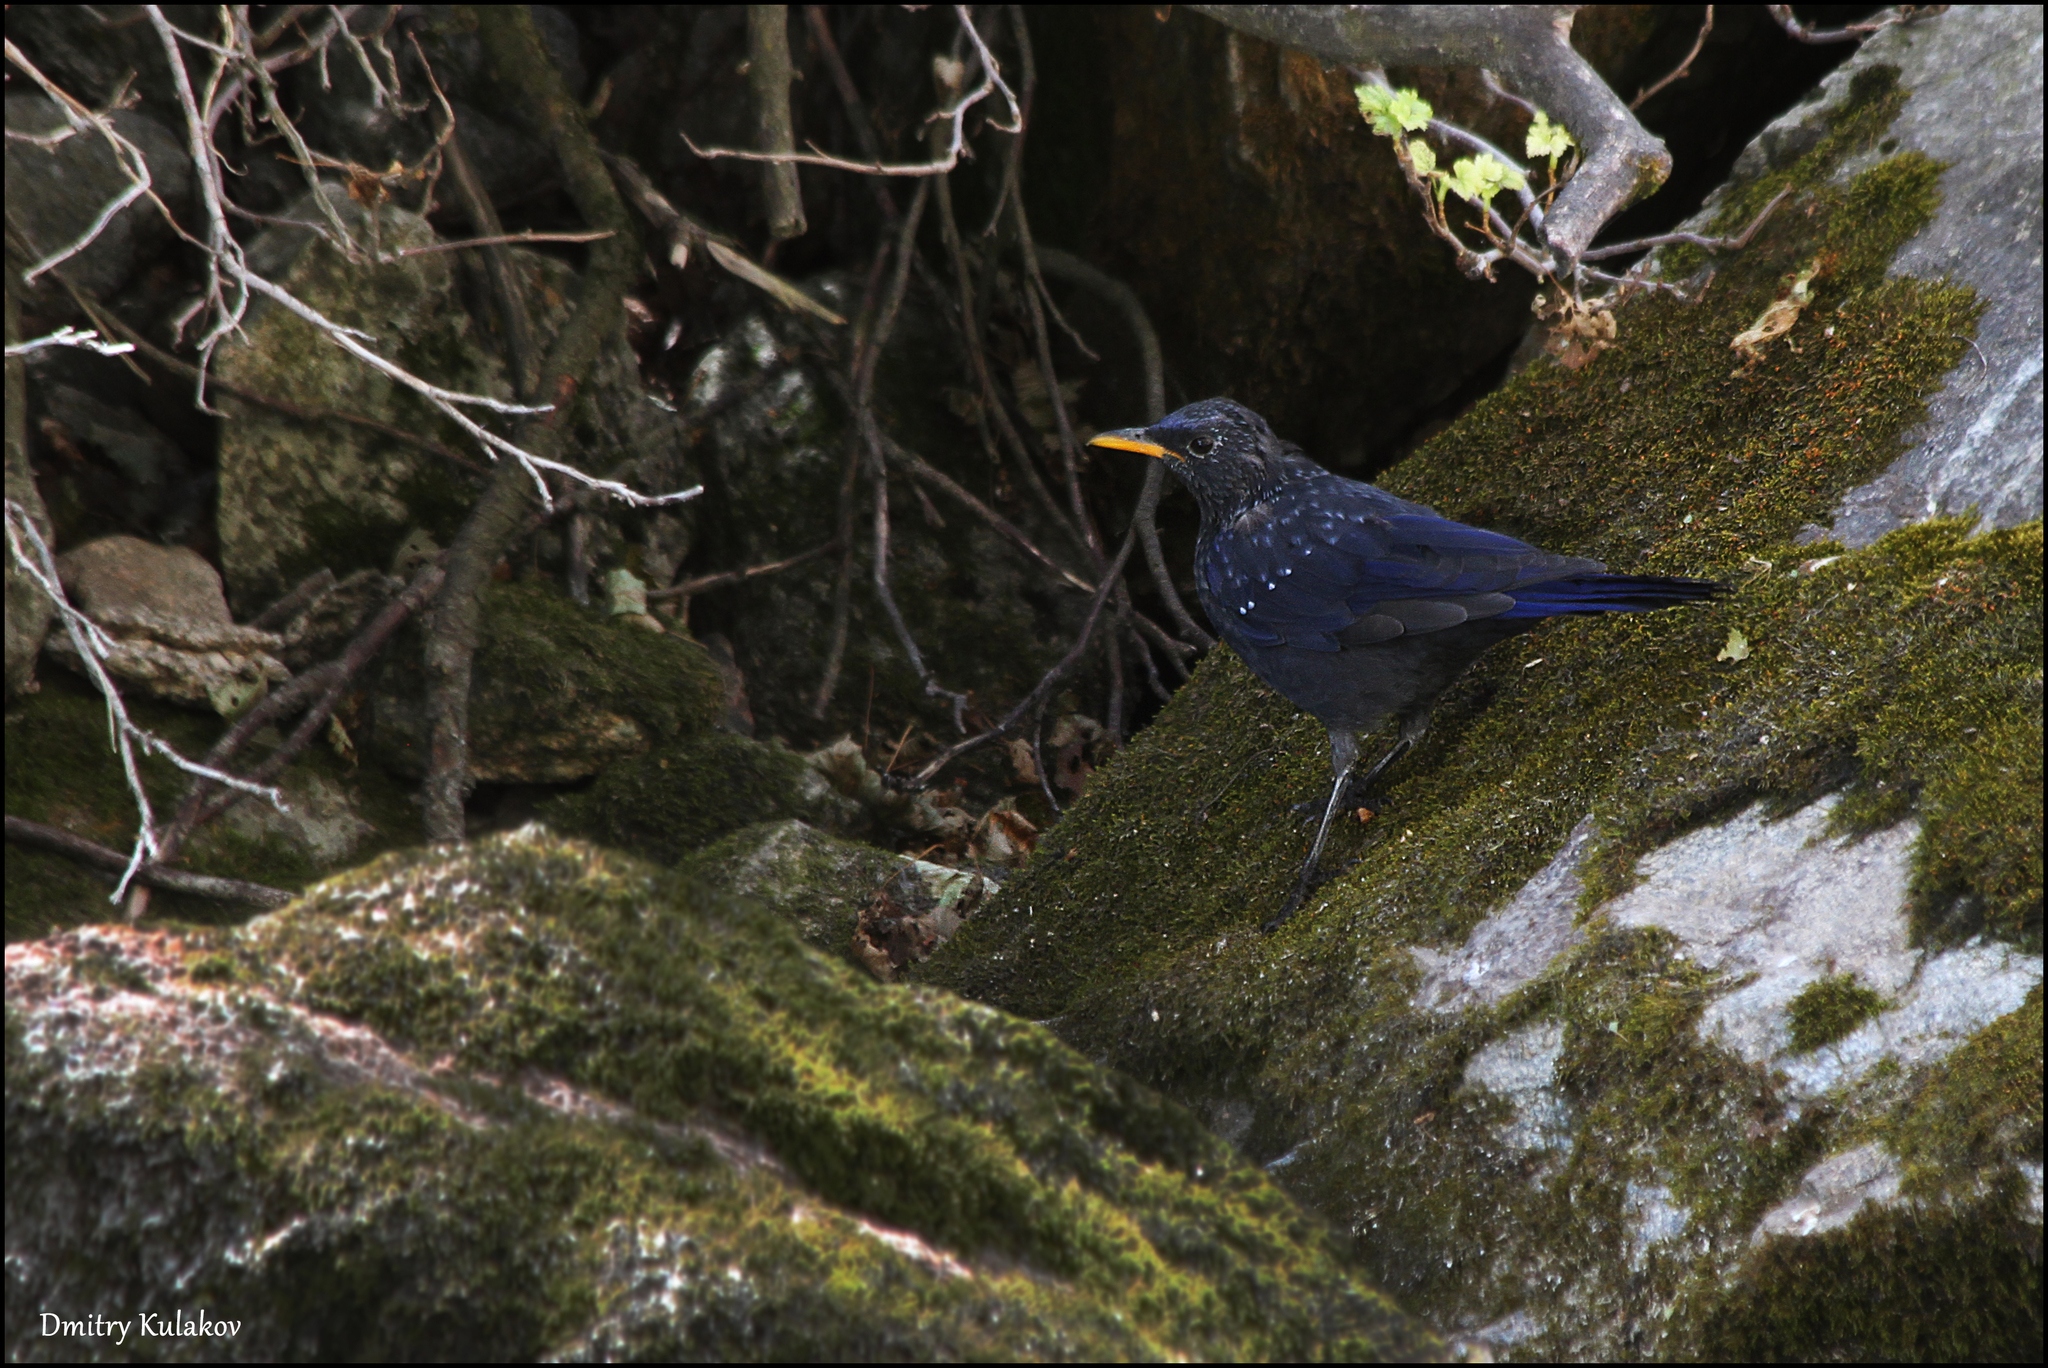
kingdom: Animalia
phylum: Chordata
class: Aves
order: Passeriformes
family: Muscicapidae
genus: Myophonus
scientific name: Myophonus caeruleus
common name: Blue whistling-thrush
